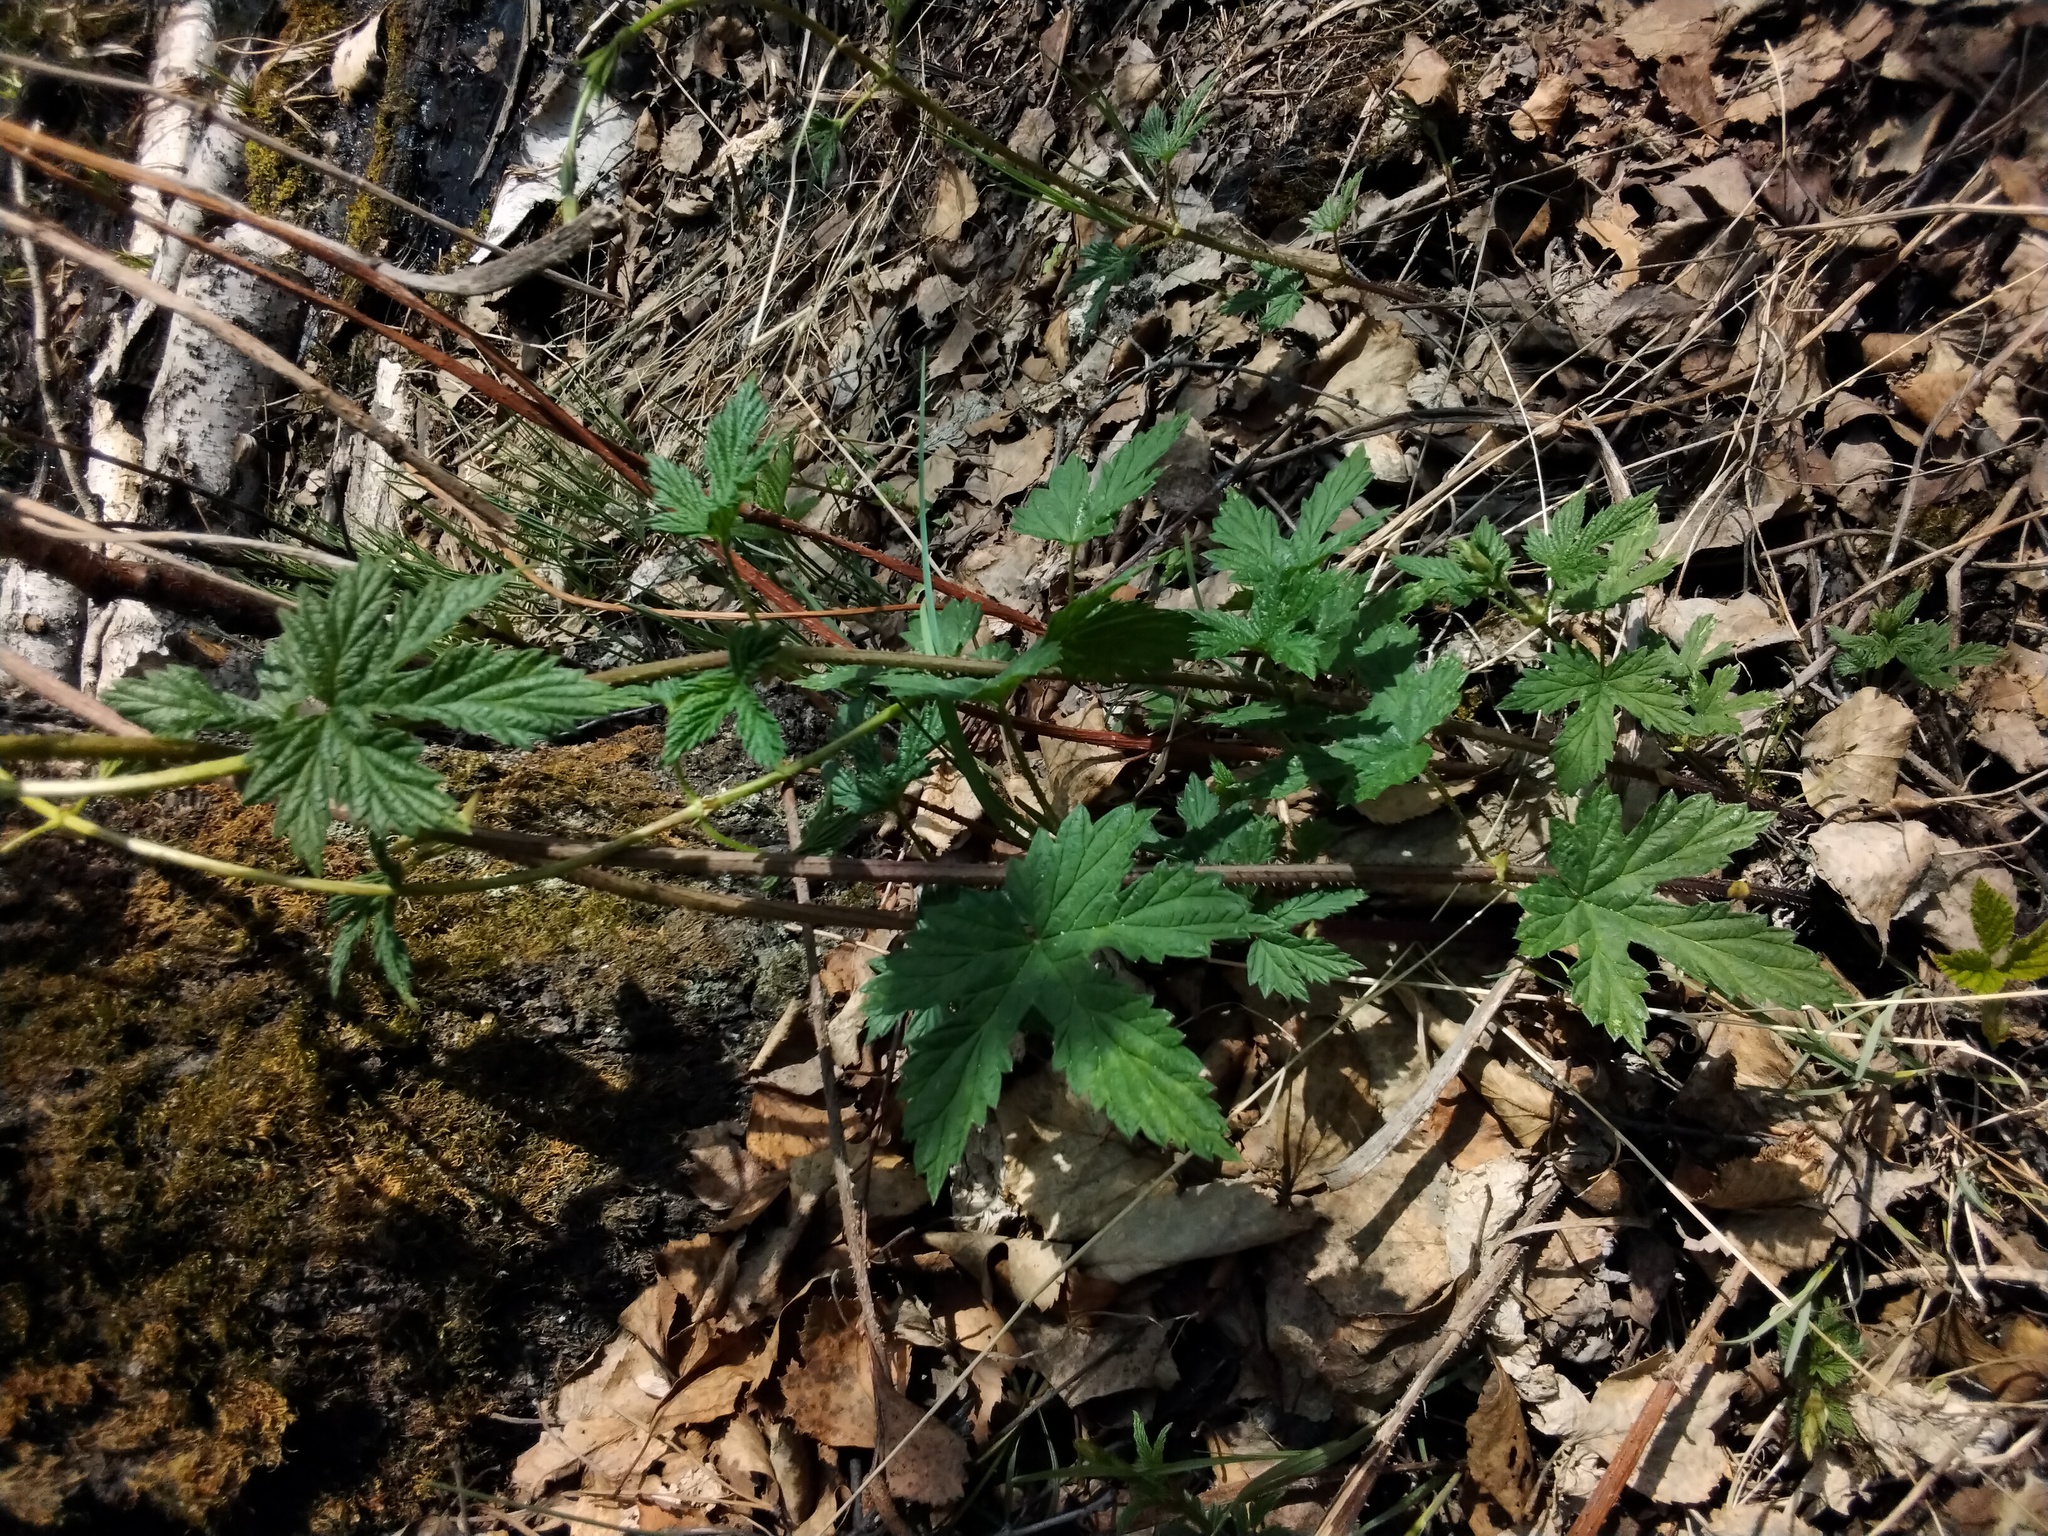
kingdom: Plantae
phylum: Tracheophyta
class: Magnoliopsida
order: Rosales
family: Cannabaceae
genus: Humulus
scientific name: Humulus lupulus
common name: Hop
